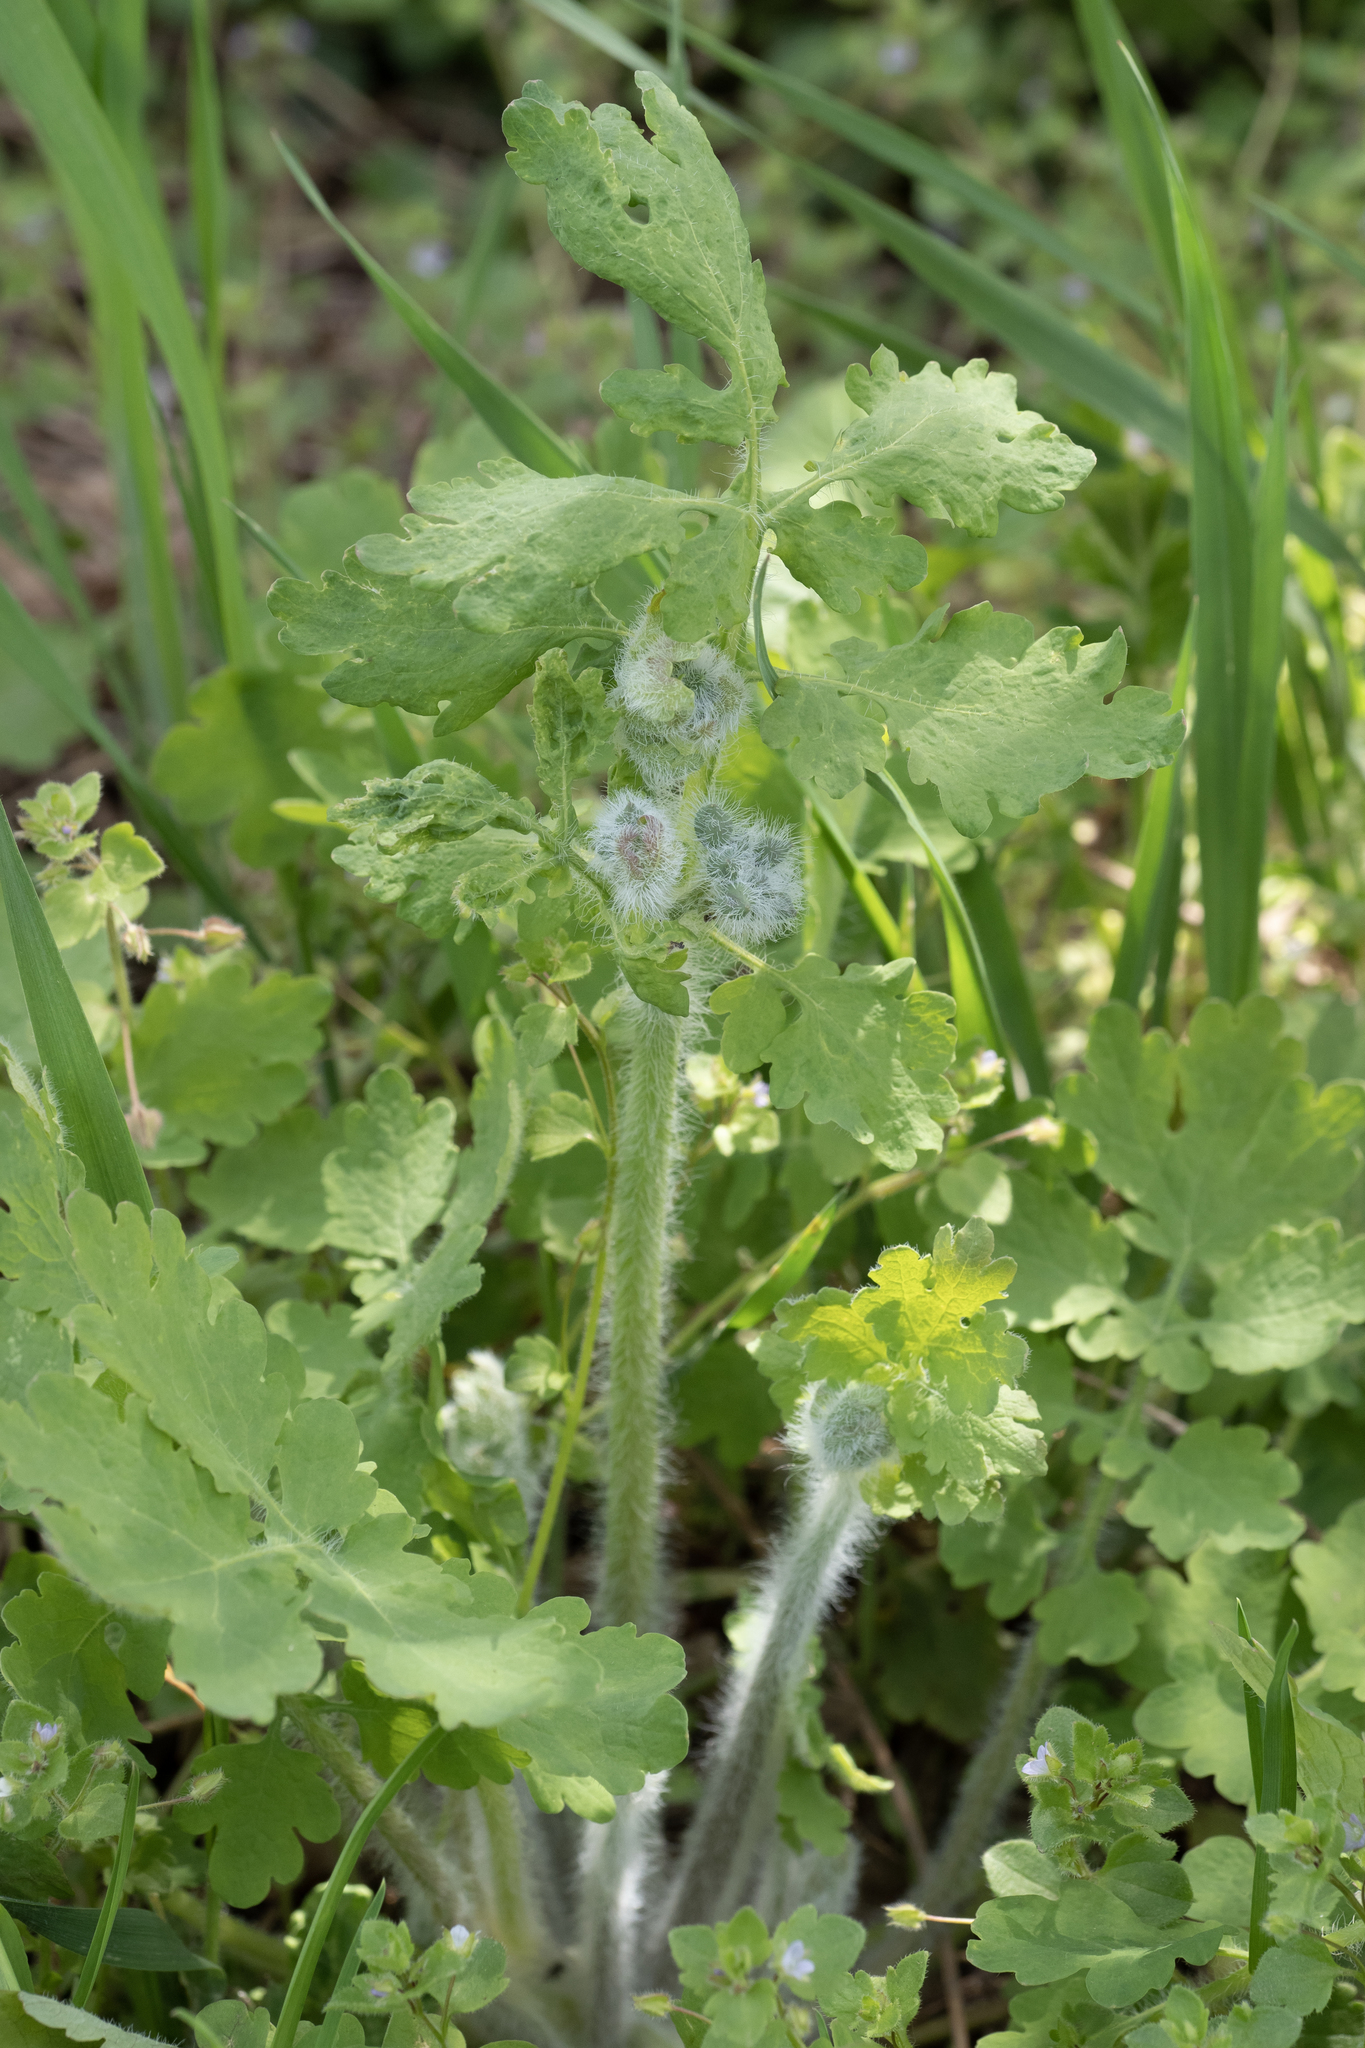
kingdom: Plantae
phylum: Tracheophyta
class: Magnoliopsida
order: Ranunculales
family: Papaveraceae
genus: Chelidonium
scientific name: Chelidonium majus
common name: Greater celandine
